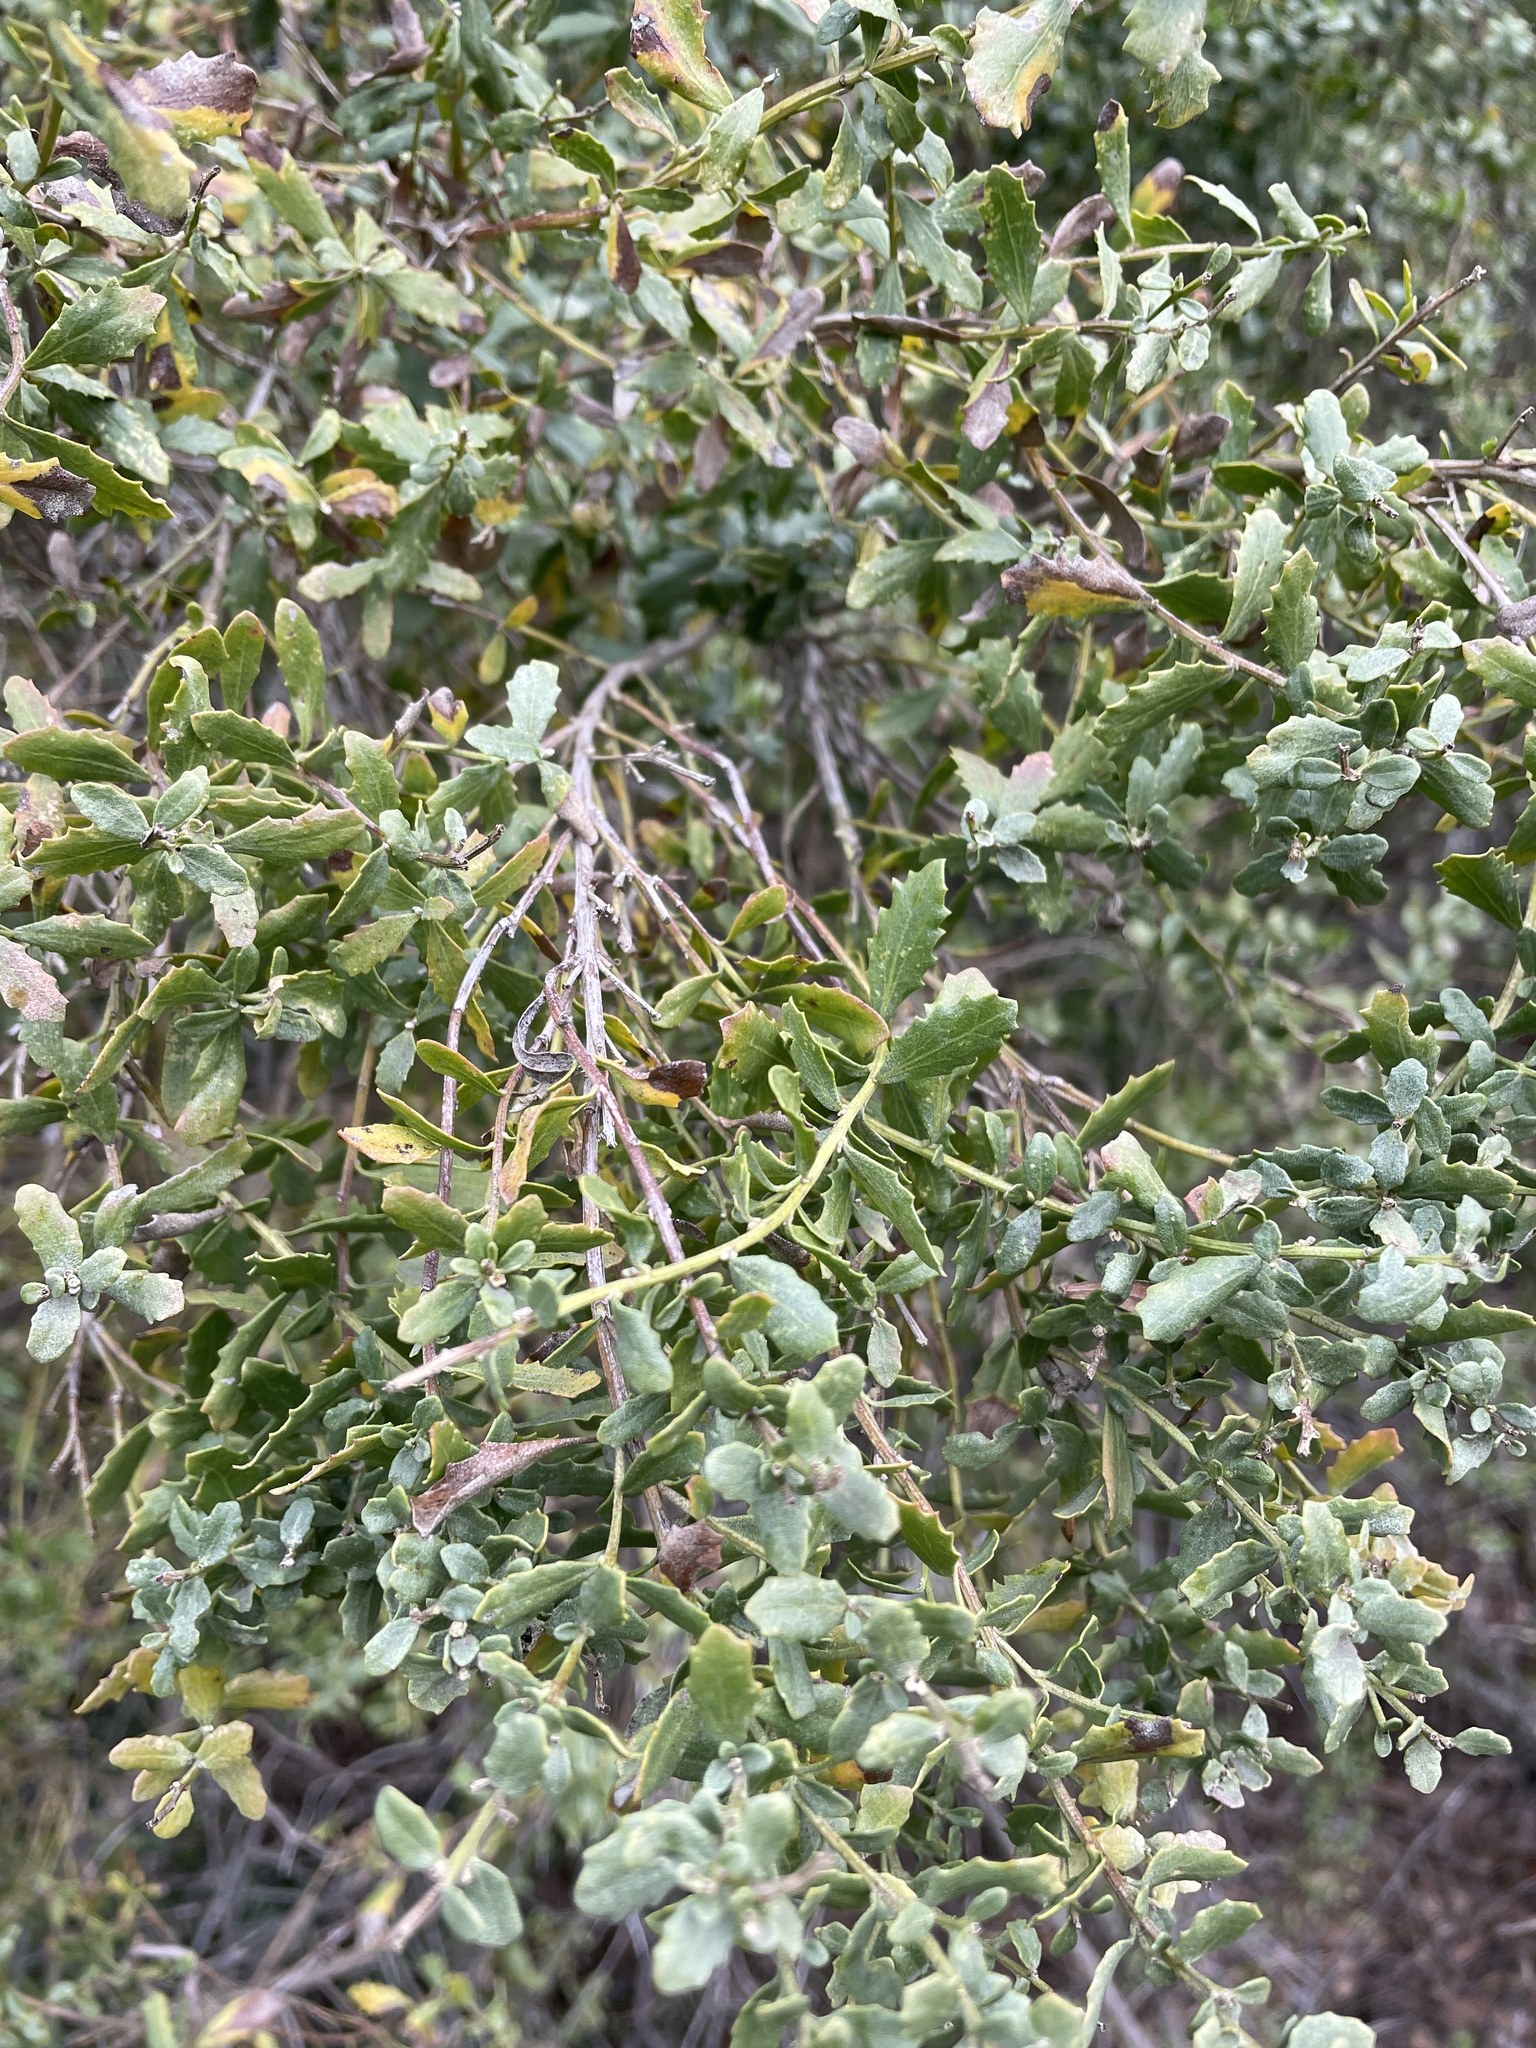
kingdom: Plantae
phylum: Tracheophyta
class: Magnoliopsida
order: Asterales
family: Asteraceae
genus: Baccharis
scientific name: Baccharis pilularis
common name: Coyotebrush
